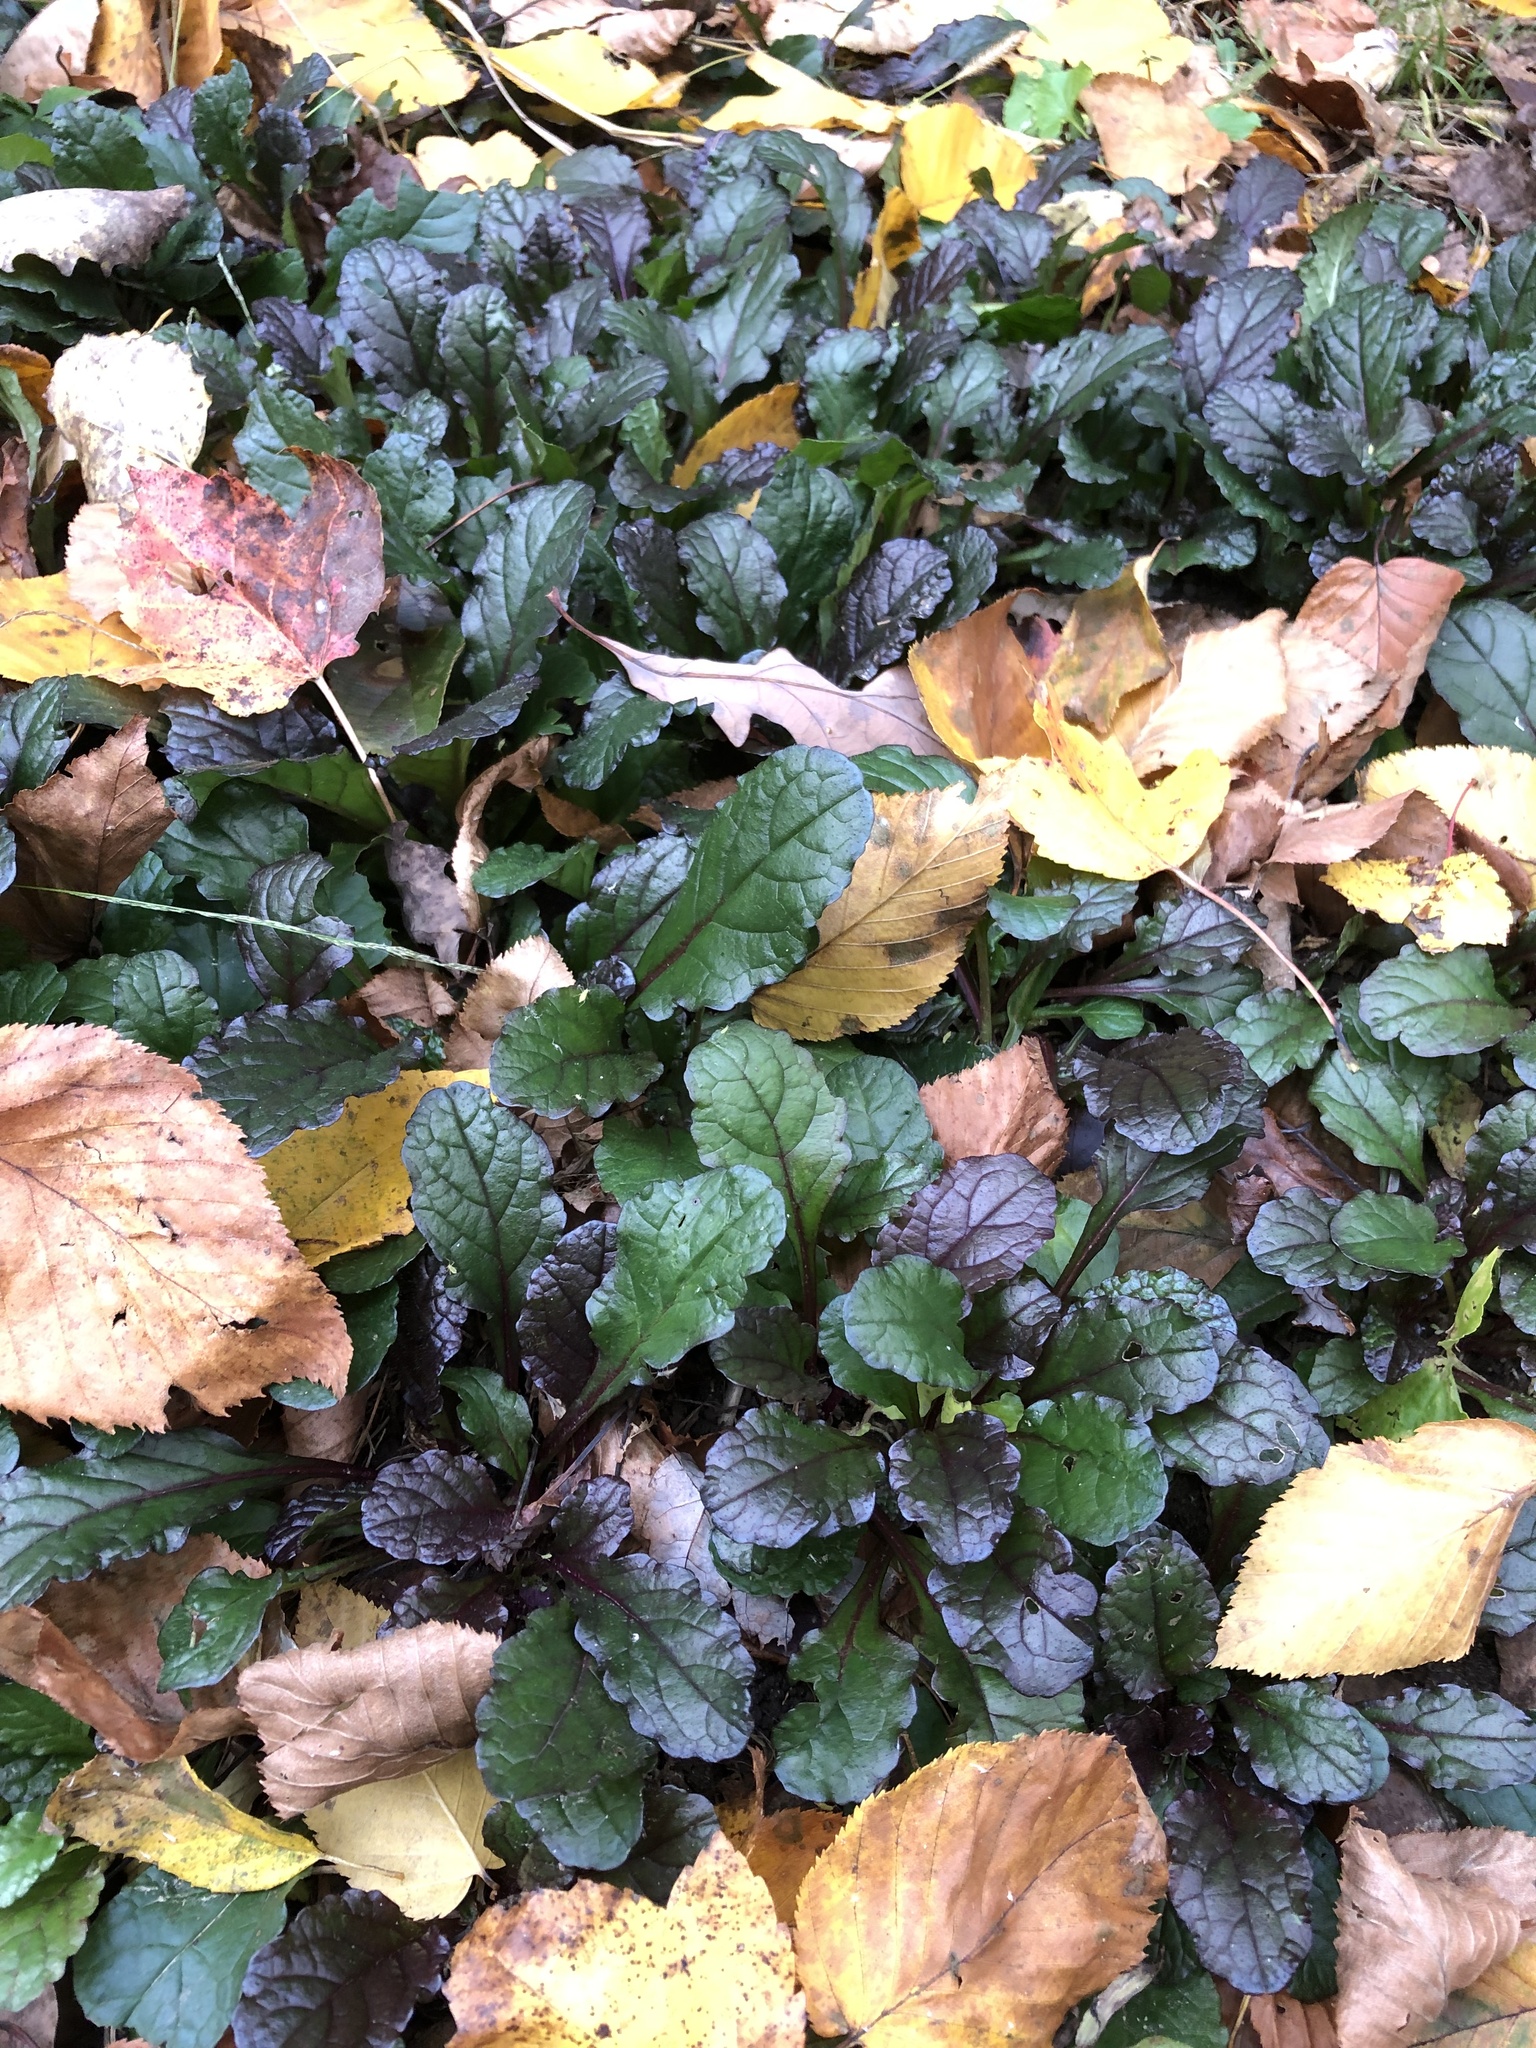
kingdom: Plantae
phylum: Tracheophyta
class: Magnoliopsida
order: Lamiales
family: Lamiaceae
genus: Ajuga
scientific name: Ajuga reptans
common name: Bugle
